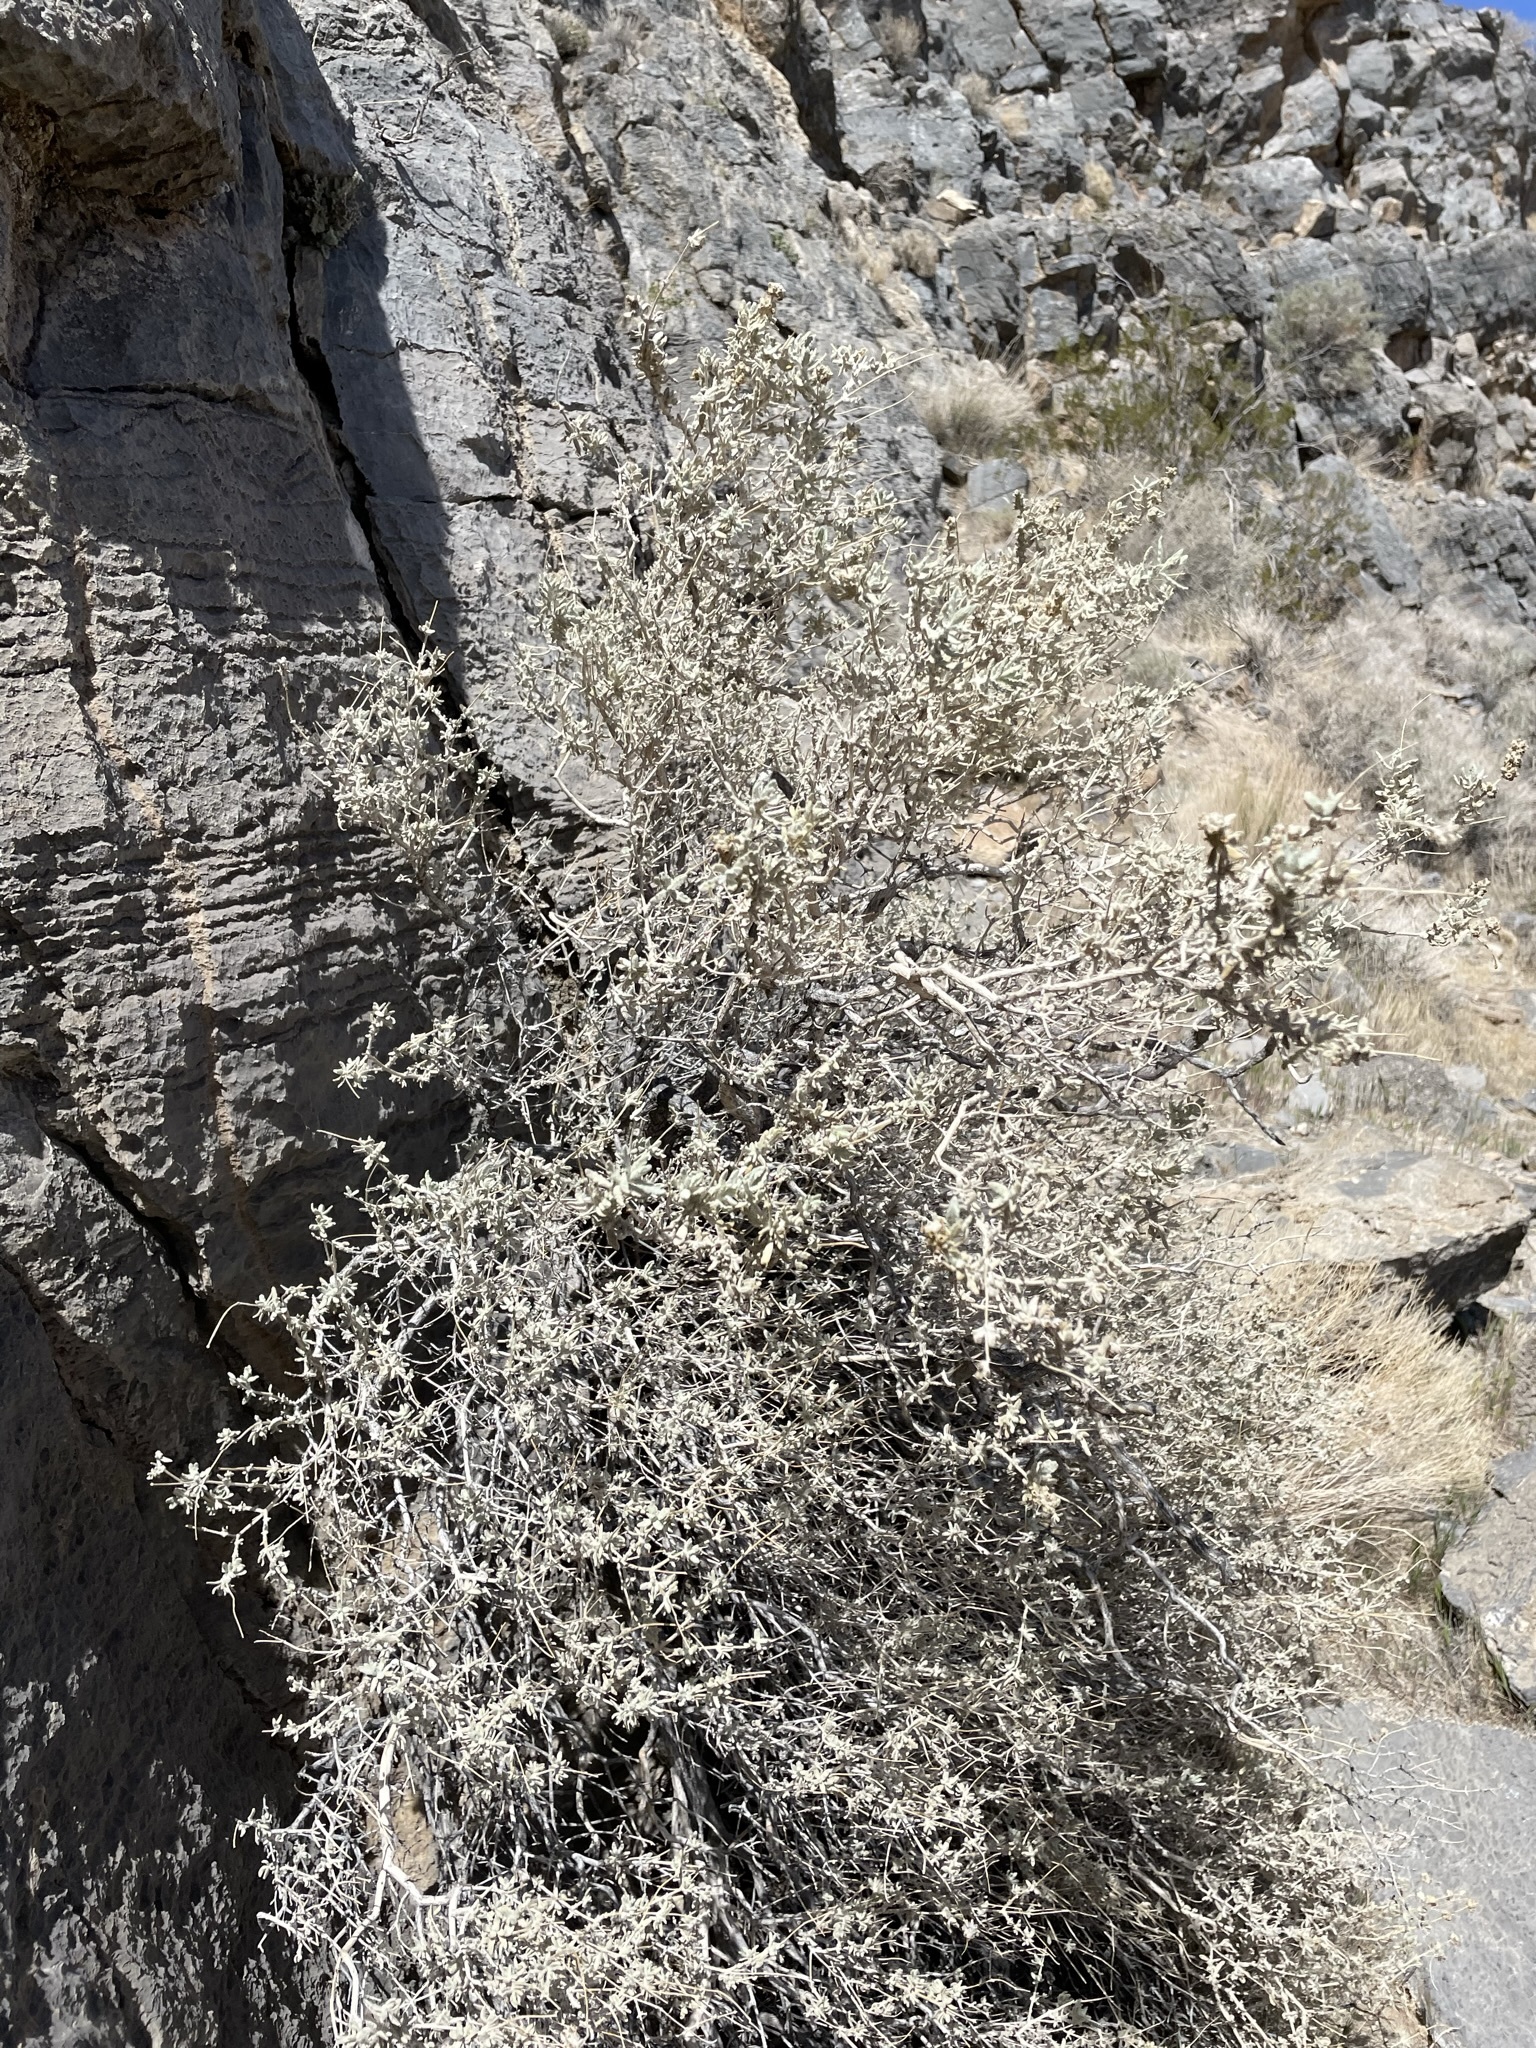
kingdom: Plantae
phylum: Tracheophyta
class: Magnoliopsida
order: Lamiales
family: Scrophulariaceae
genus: Buddleja
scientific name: Buddleja utahensis
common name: Utah butterfly-bush
